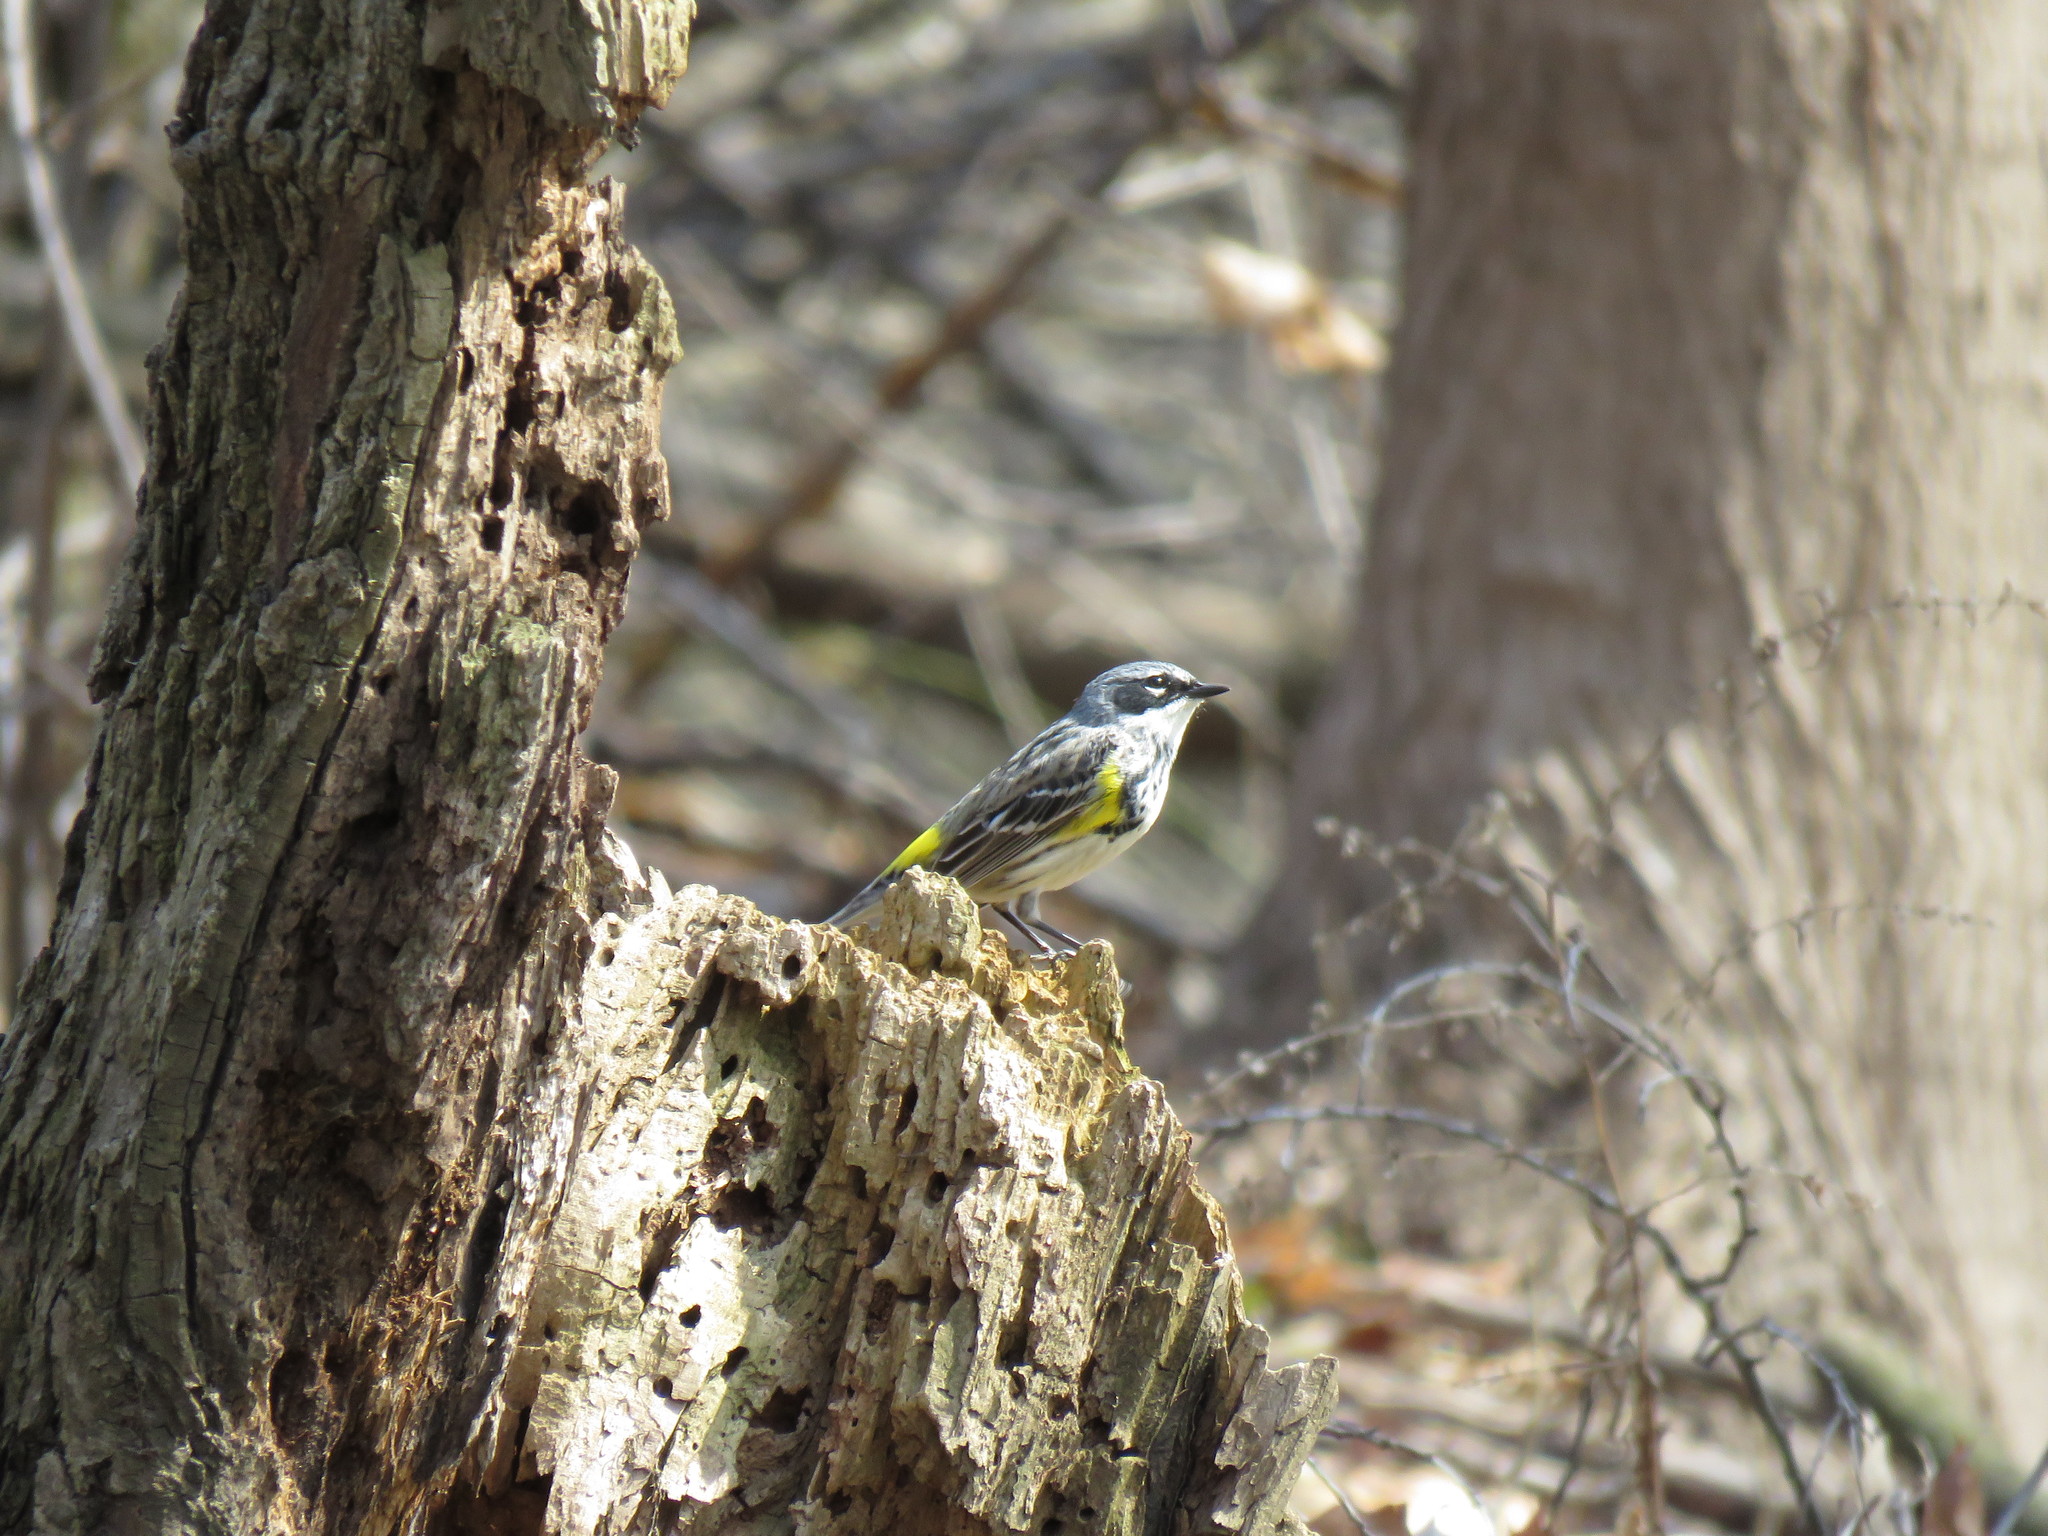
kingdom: Animalia
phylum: Chordata
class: Aves
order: Passeriformes
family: Parulidae
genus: Setophaga
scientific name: Setophaga coronata
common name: Myrtle warbler
